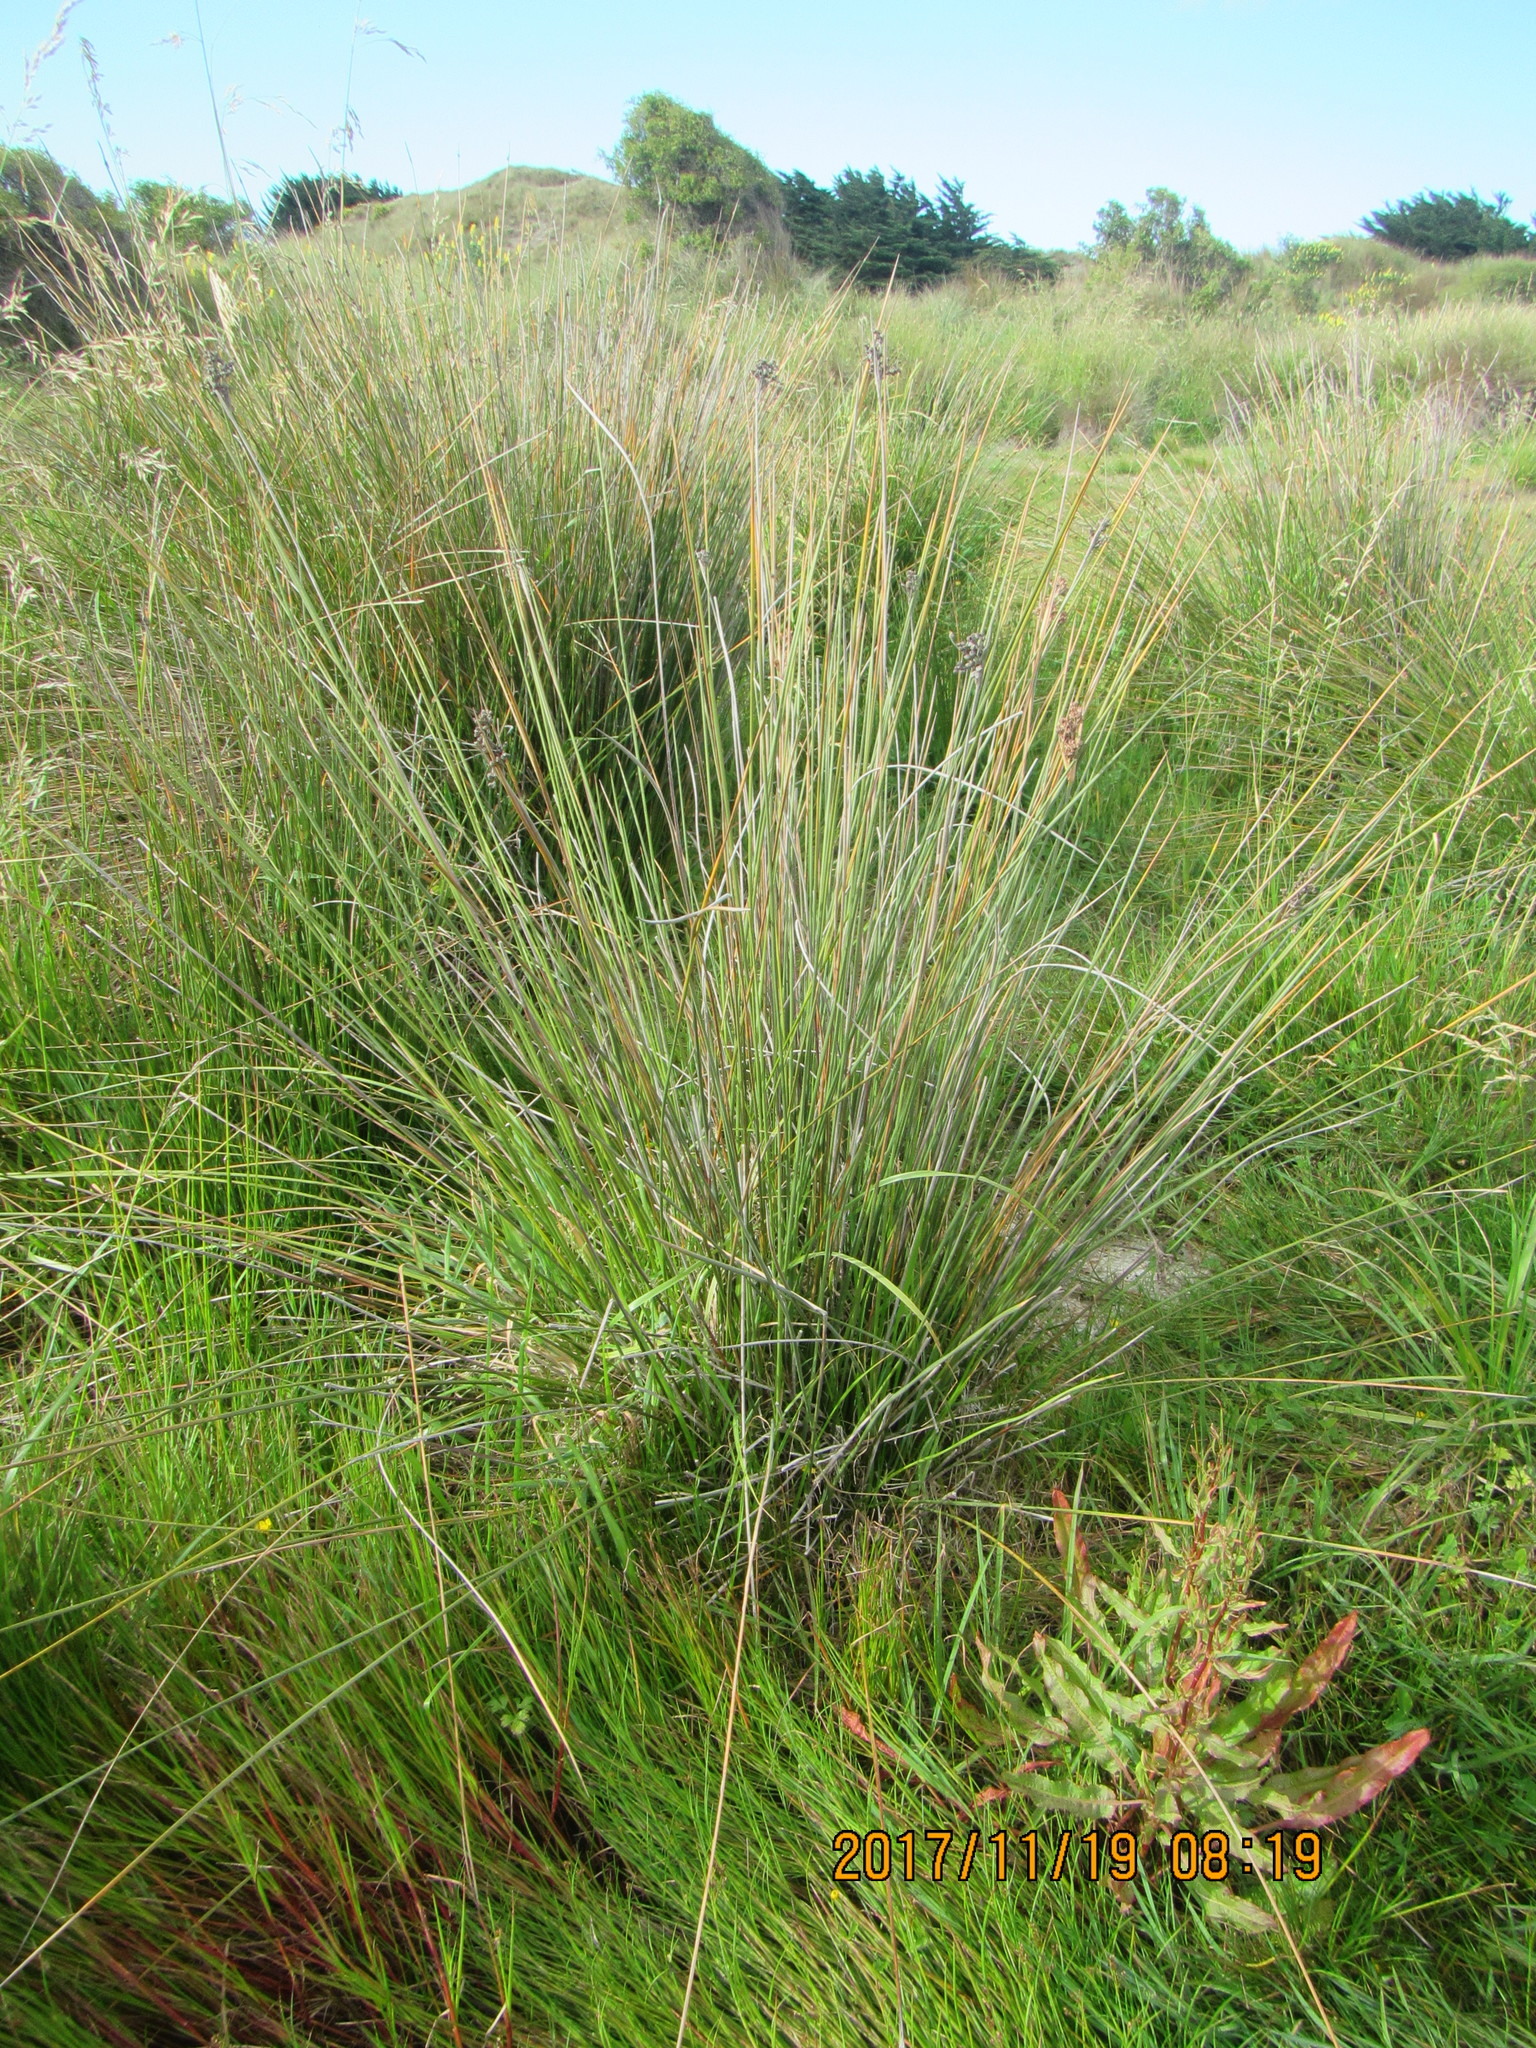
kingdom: Plantae
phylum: Tracheophyta
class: Liliopsida
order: Poales
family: Juncaceae
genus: Juncus
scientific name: Juncus acutus
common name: Sharp rush
